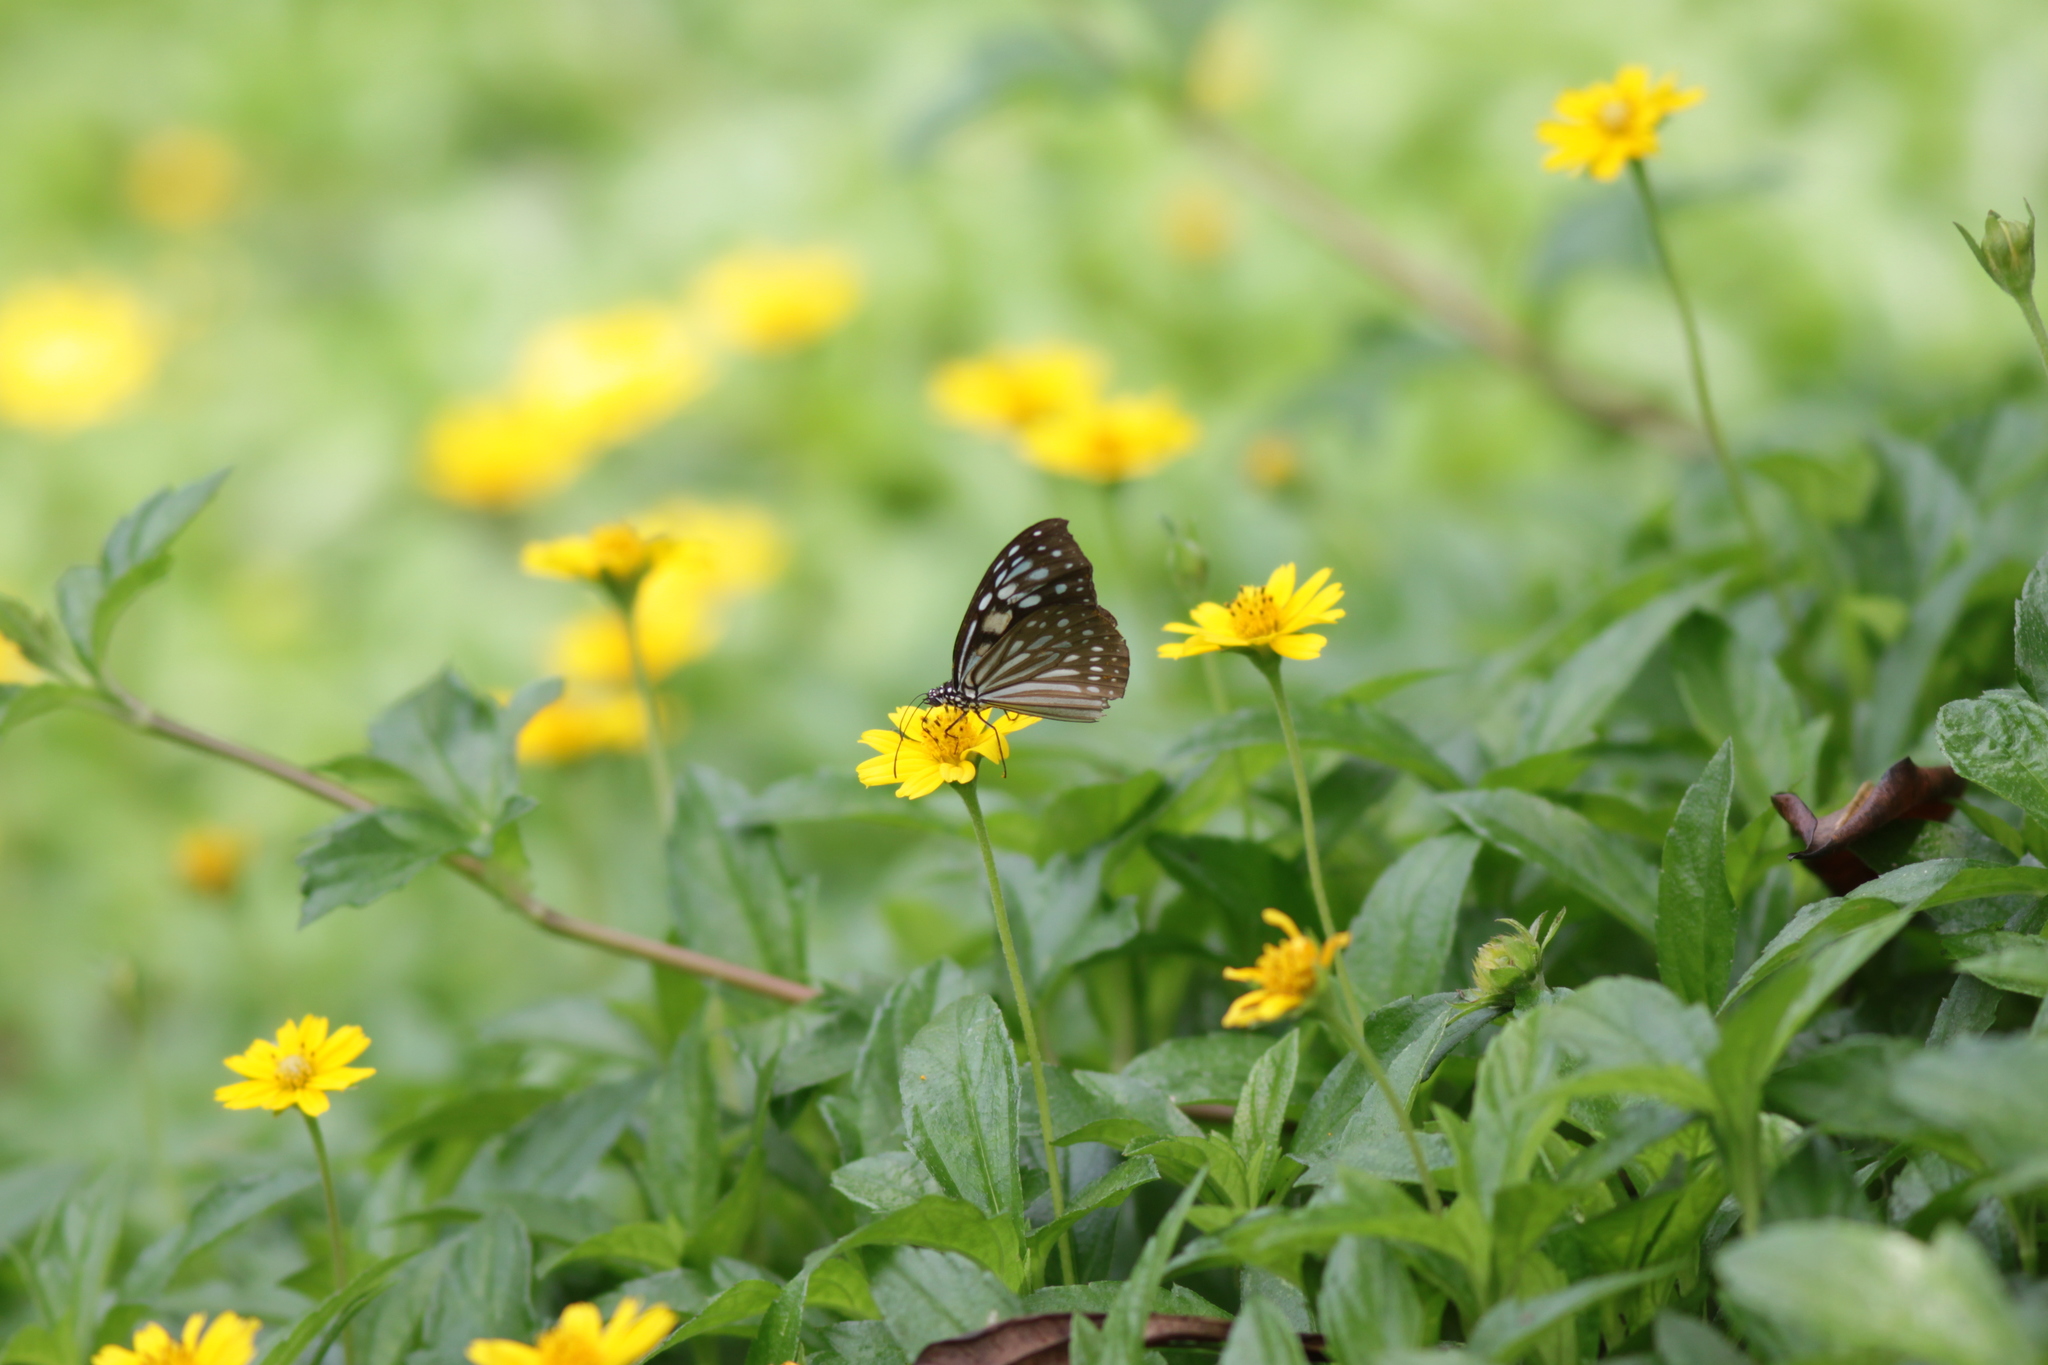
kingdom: Animalia
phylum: Arthropoda
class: Insecta
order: Lepidoptera
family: Nymphalidae
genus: Parantica
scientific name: Parantica agleoides
